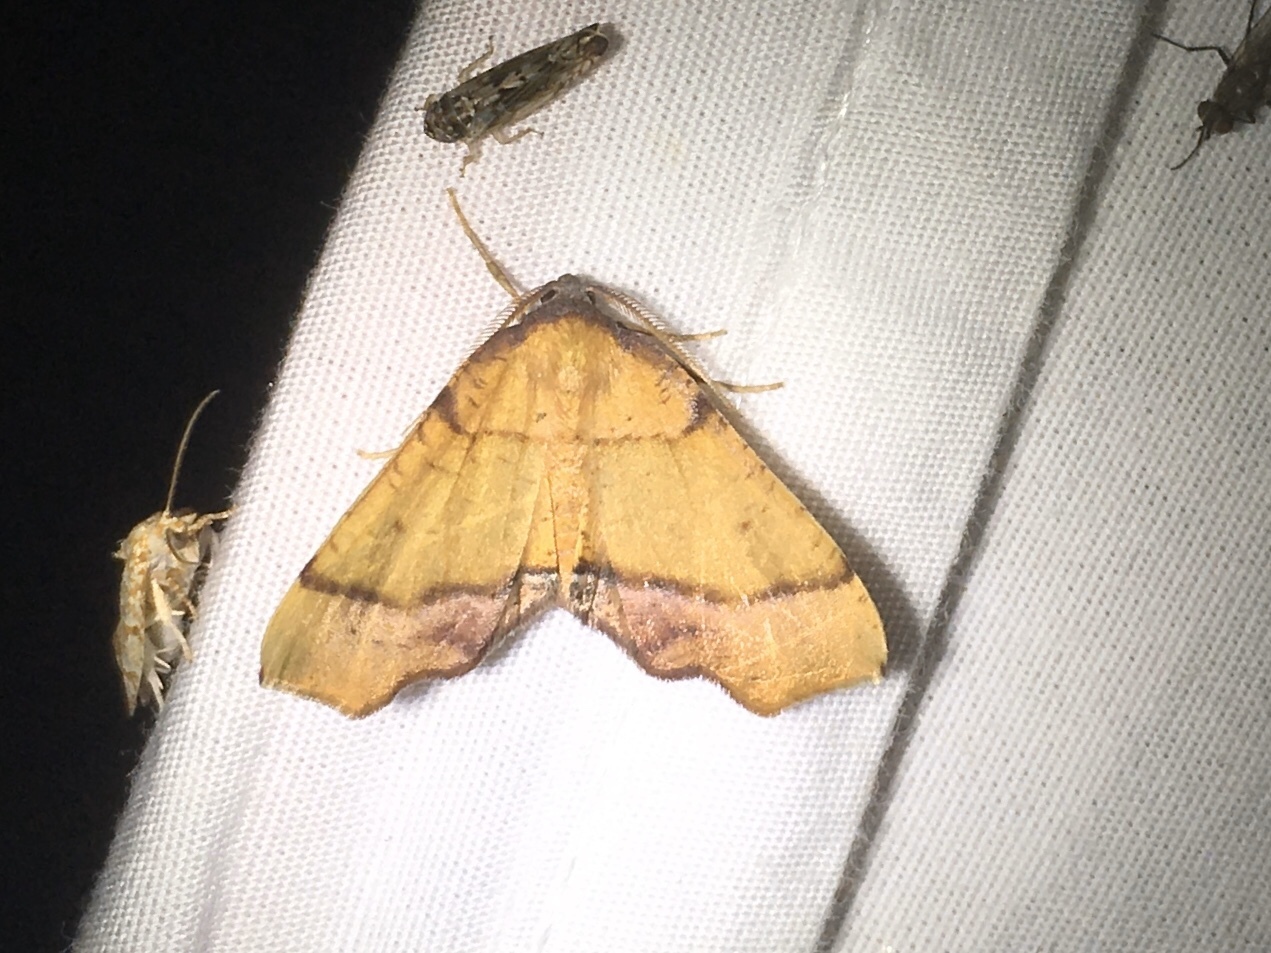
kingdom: Animalia
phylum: Arthropoda
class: Insecta
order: Lepidoptera
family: Geometridae
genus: Plagodis
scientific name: Plagodis phlogosaria
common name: Straight-lined plagodis
